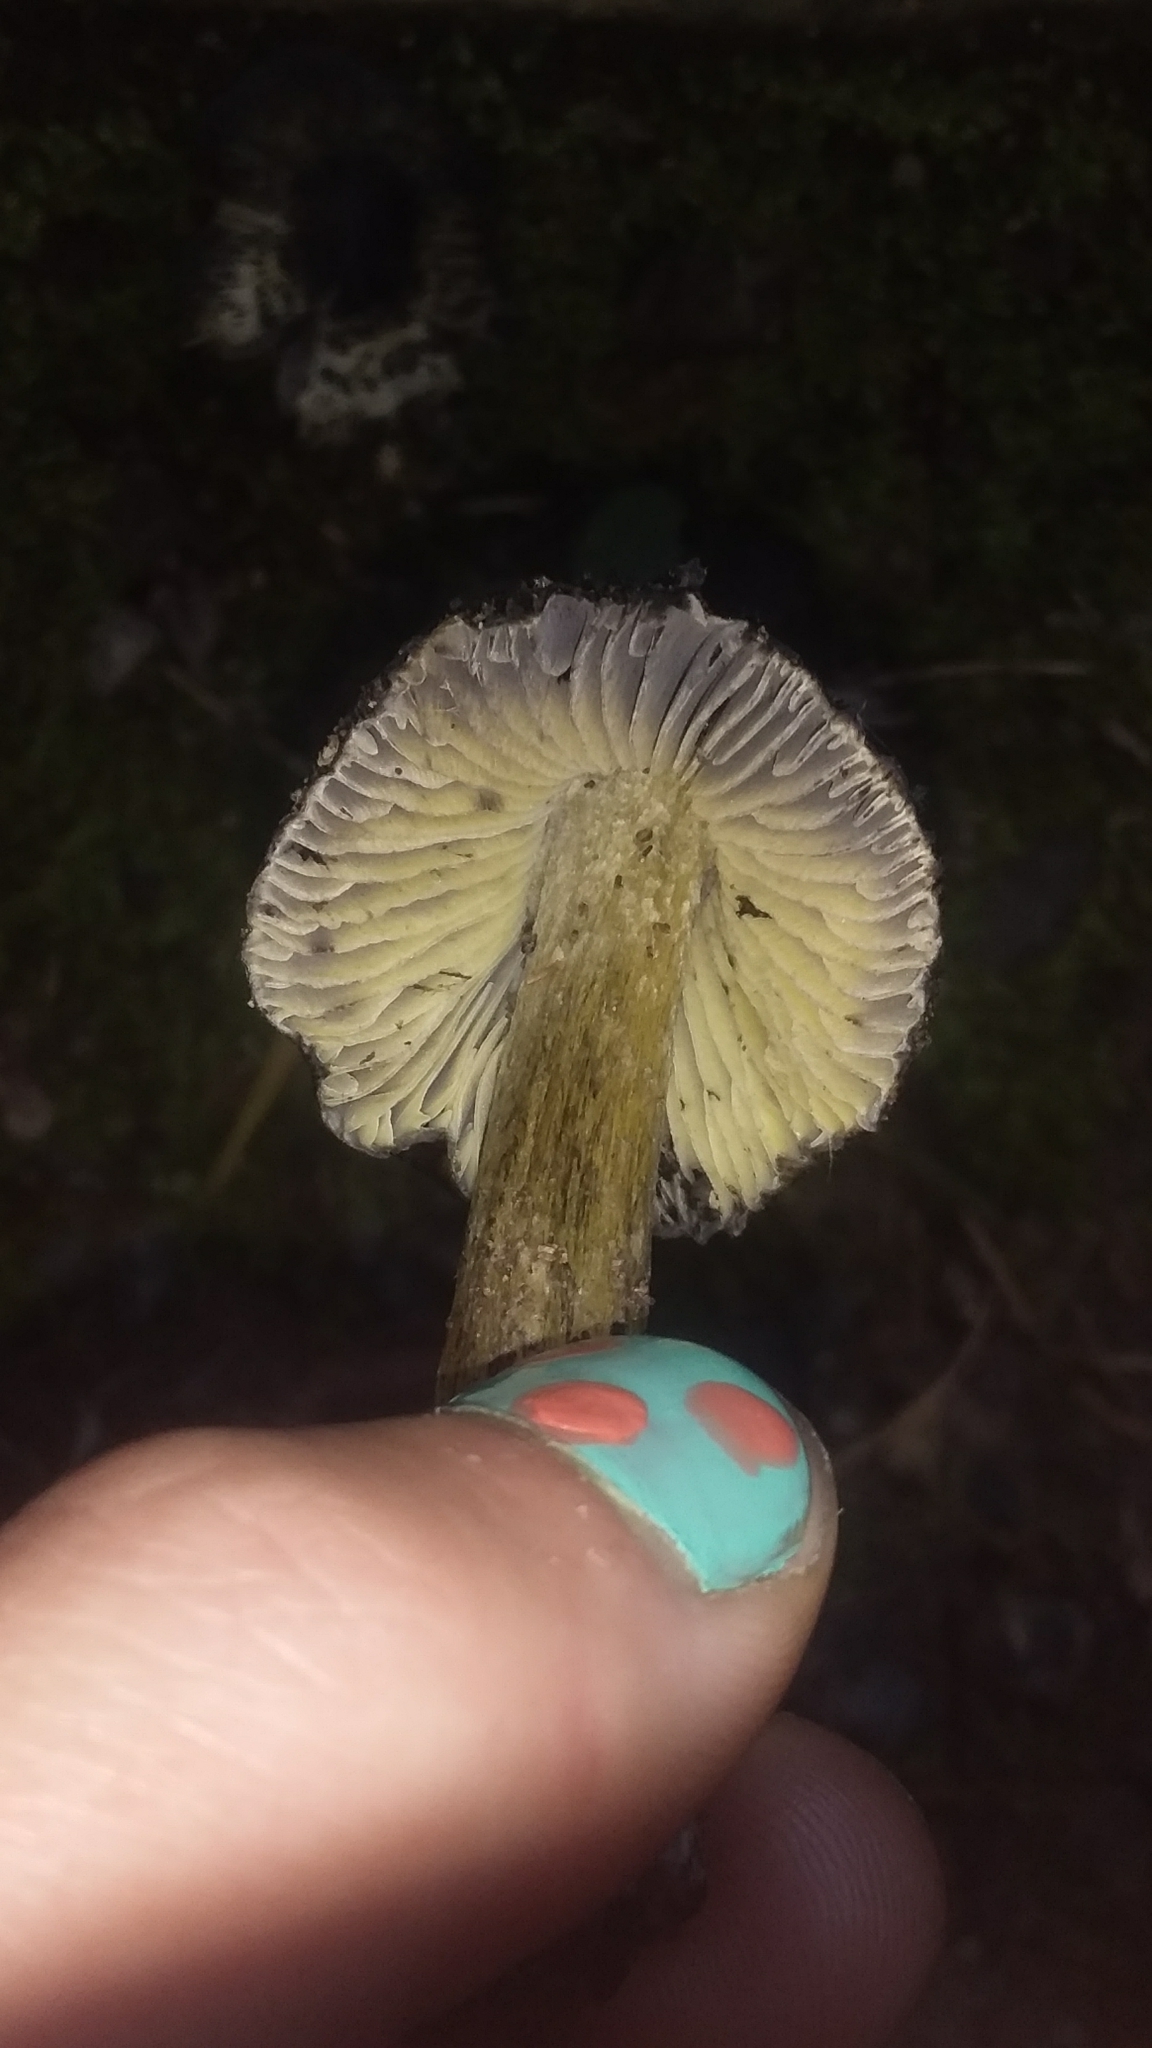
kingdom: Fungi
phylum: Basidiomycota
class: Agaricomycetes
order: Agaricales
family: Hygrophoraceae
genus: Hygrocybe
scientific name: Hygrocybe astatogala
